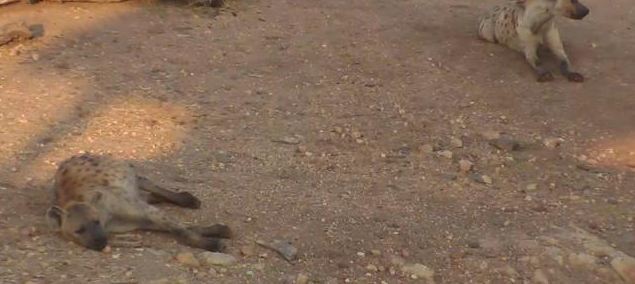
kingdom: Animalia
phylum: Chordata
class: Mammalia
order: Carnivora
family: Hyaenidae
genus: Crocuta
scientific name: Crocuta crocuta
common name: Spotted hyaena
